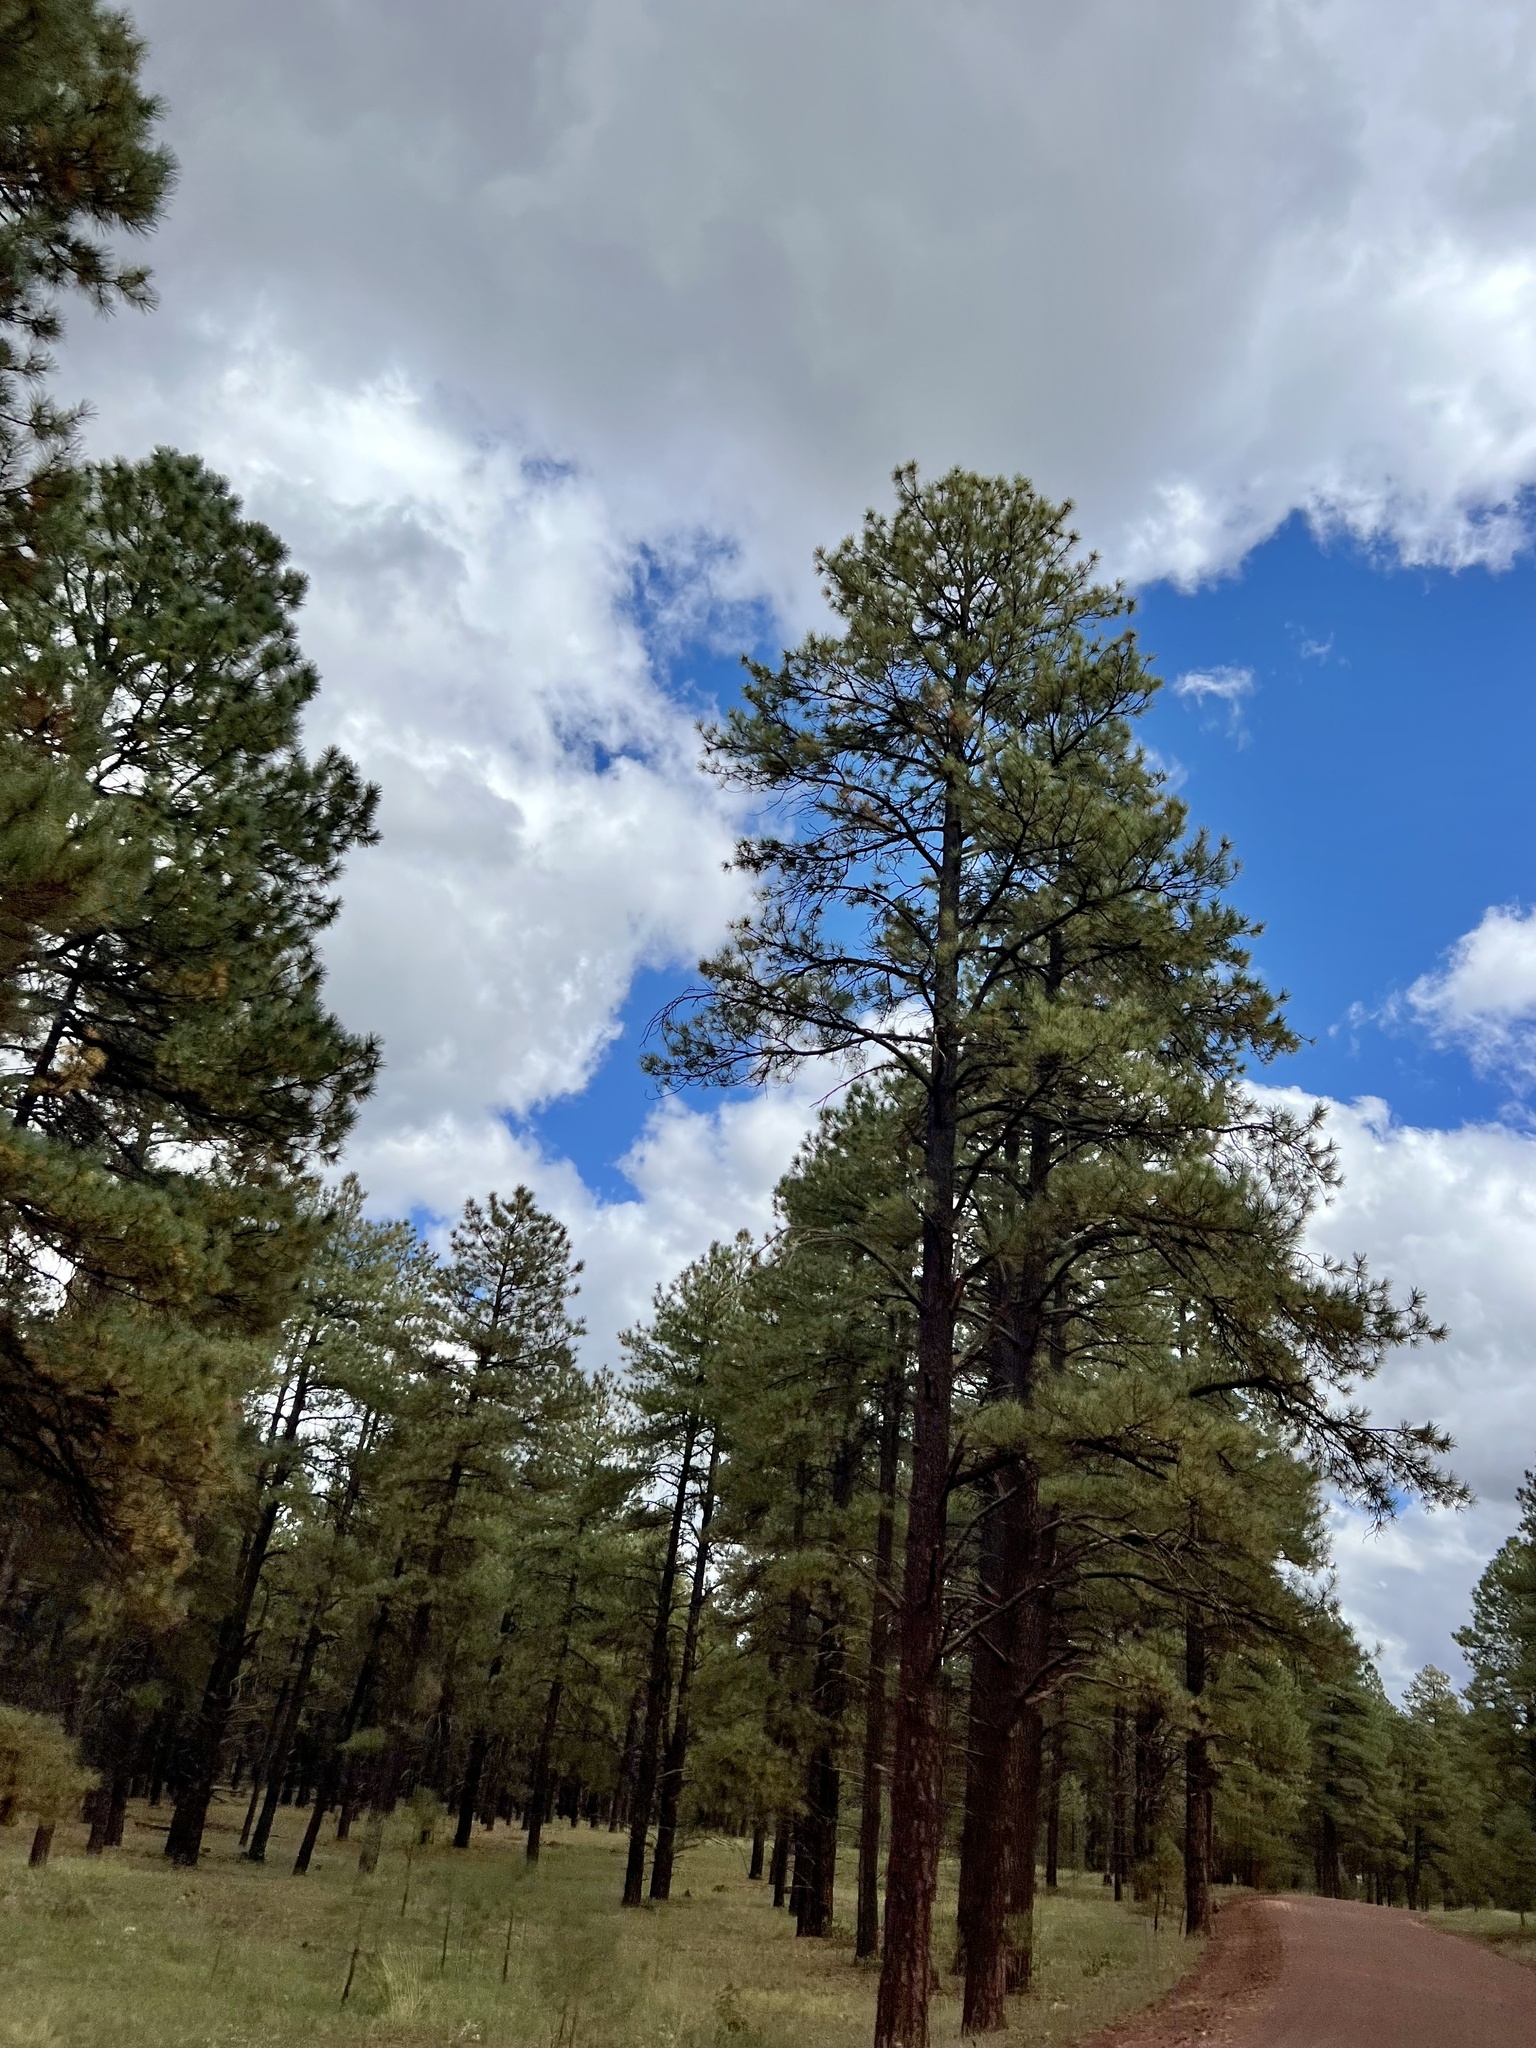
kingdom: Plantae
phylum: Tracheophyta
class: Pinopsida
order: Pinales
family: Pinaceae
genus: Pinus
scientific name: Pinus ponderosa
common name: Western yellow-pine
